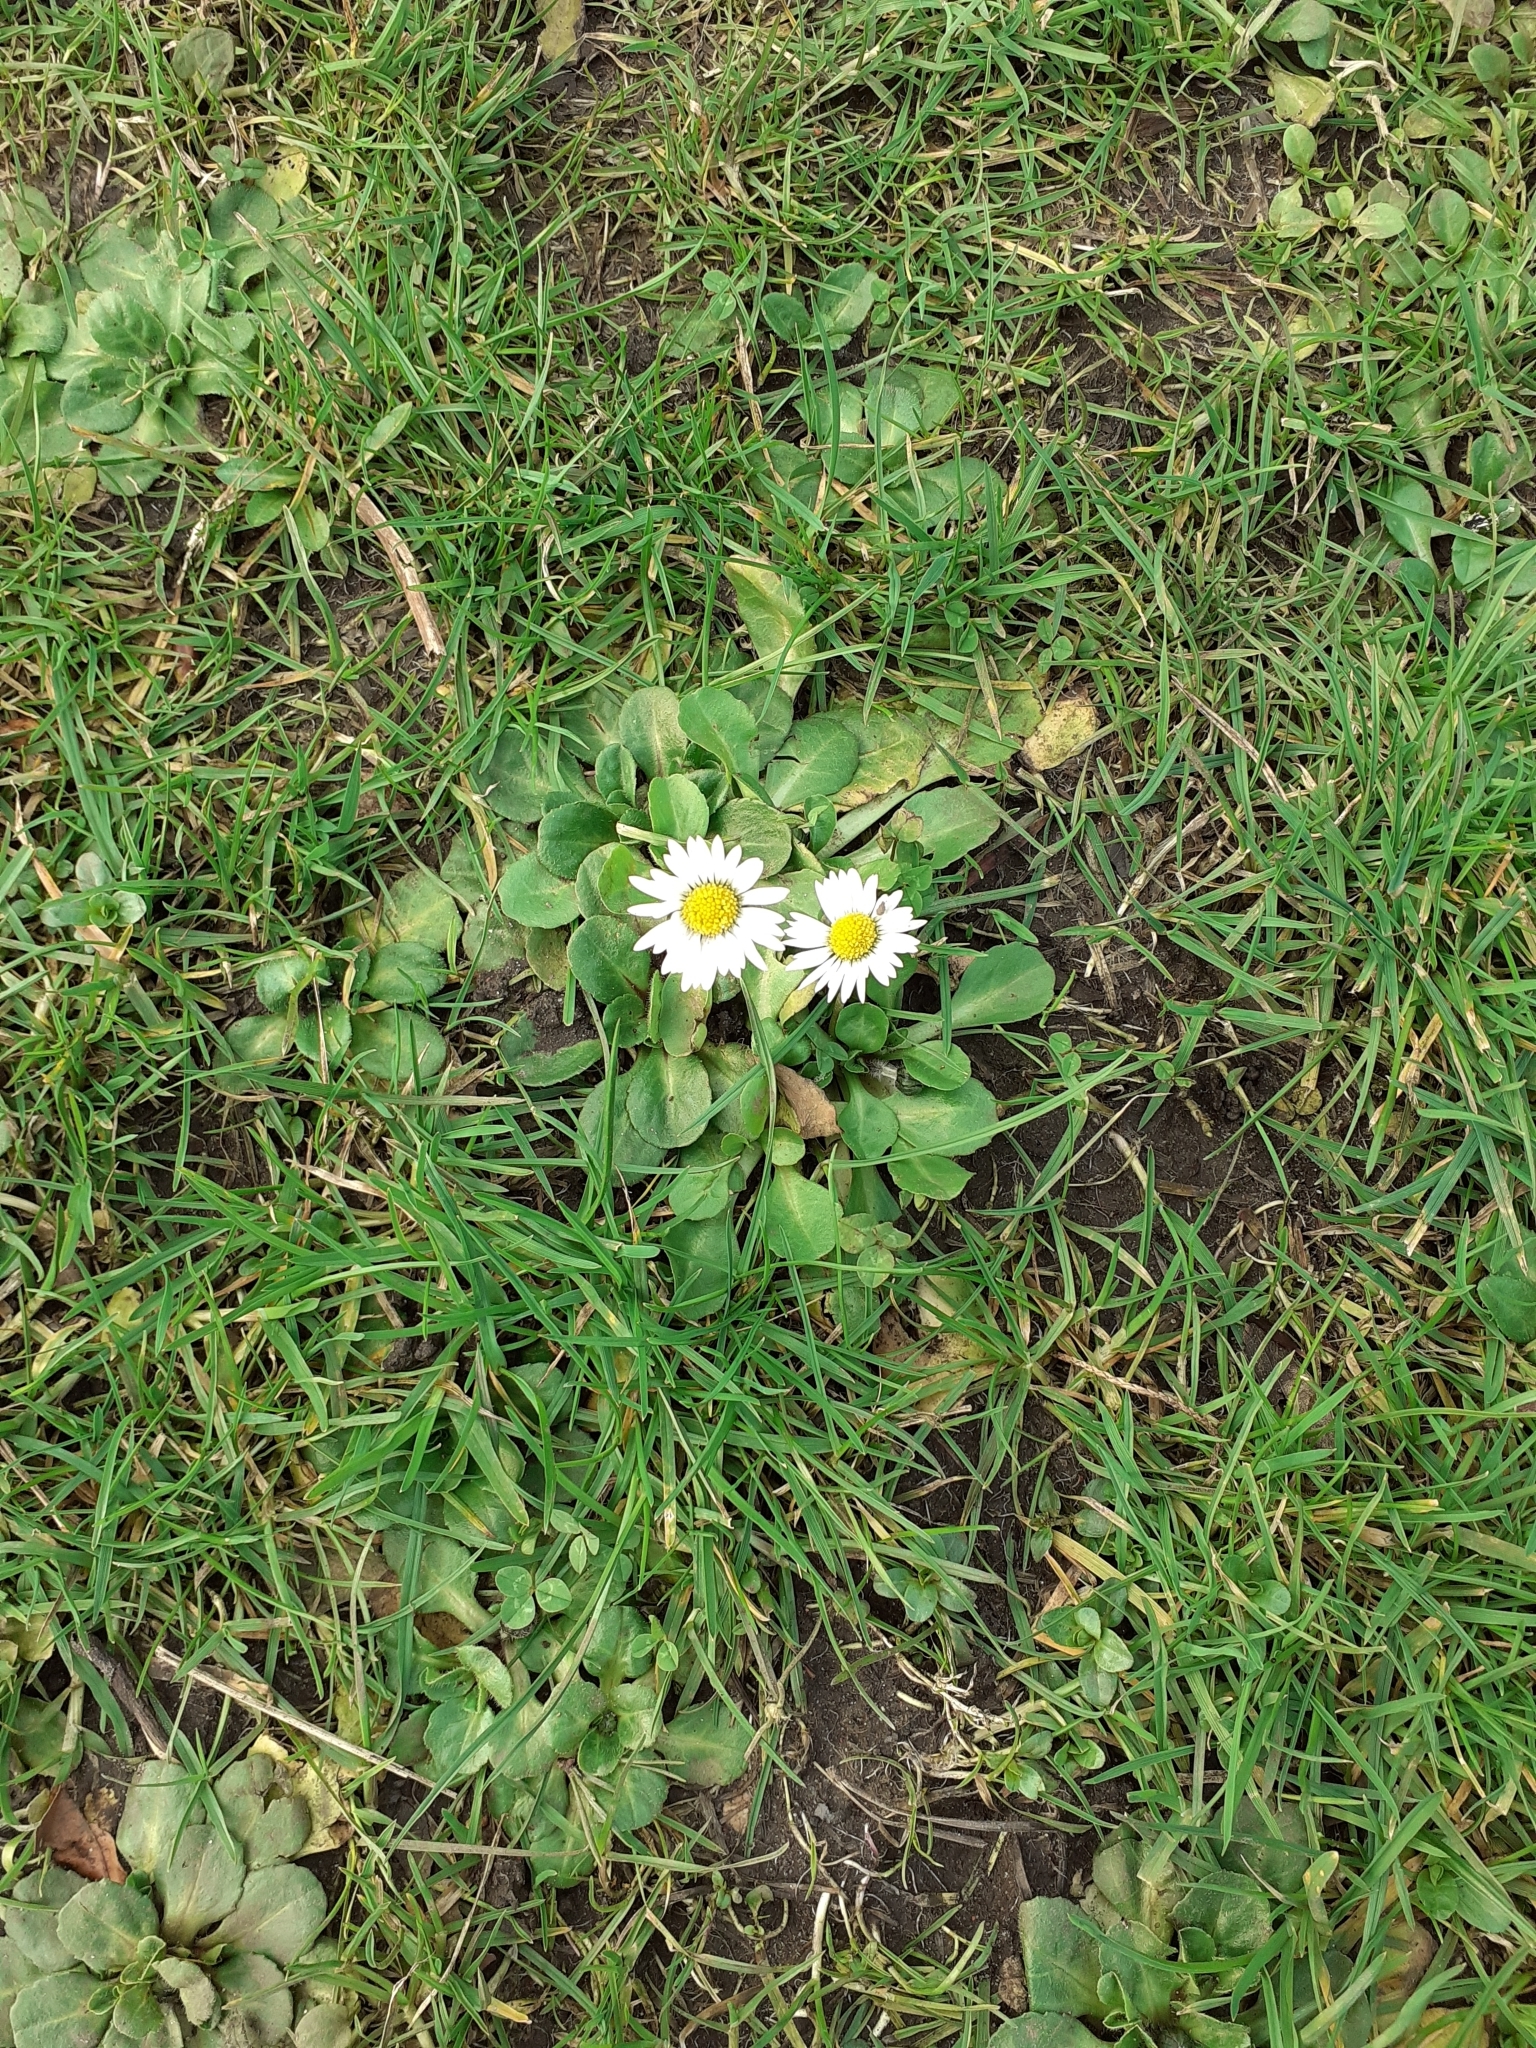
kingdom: Plantae
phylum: Tracheophyta
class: Magnoliopsida
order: Asterales
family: Asteraceae
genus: Bellis
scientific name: Bellis perennis
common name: Lawndaisy
